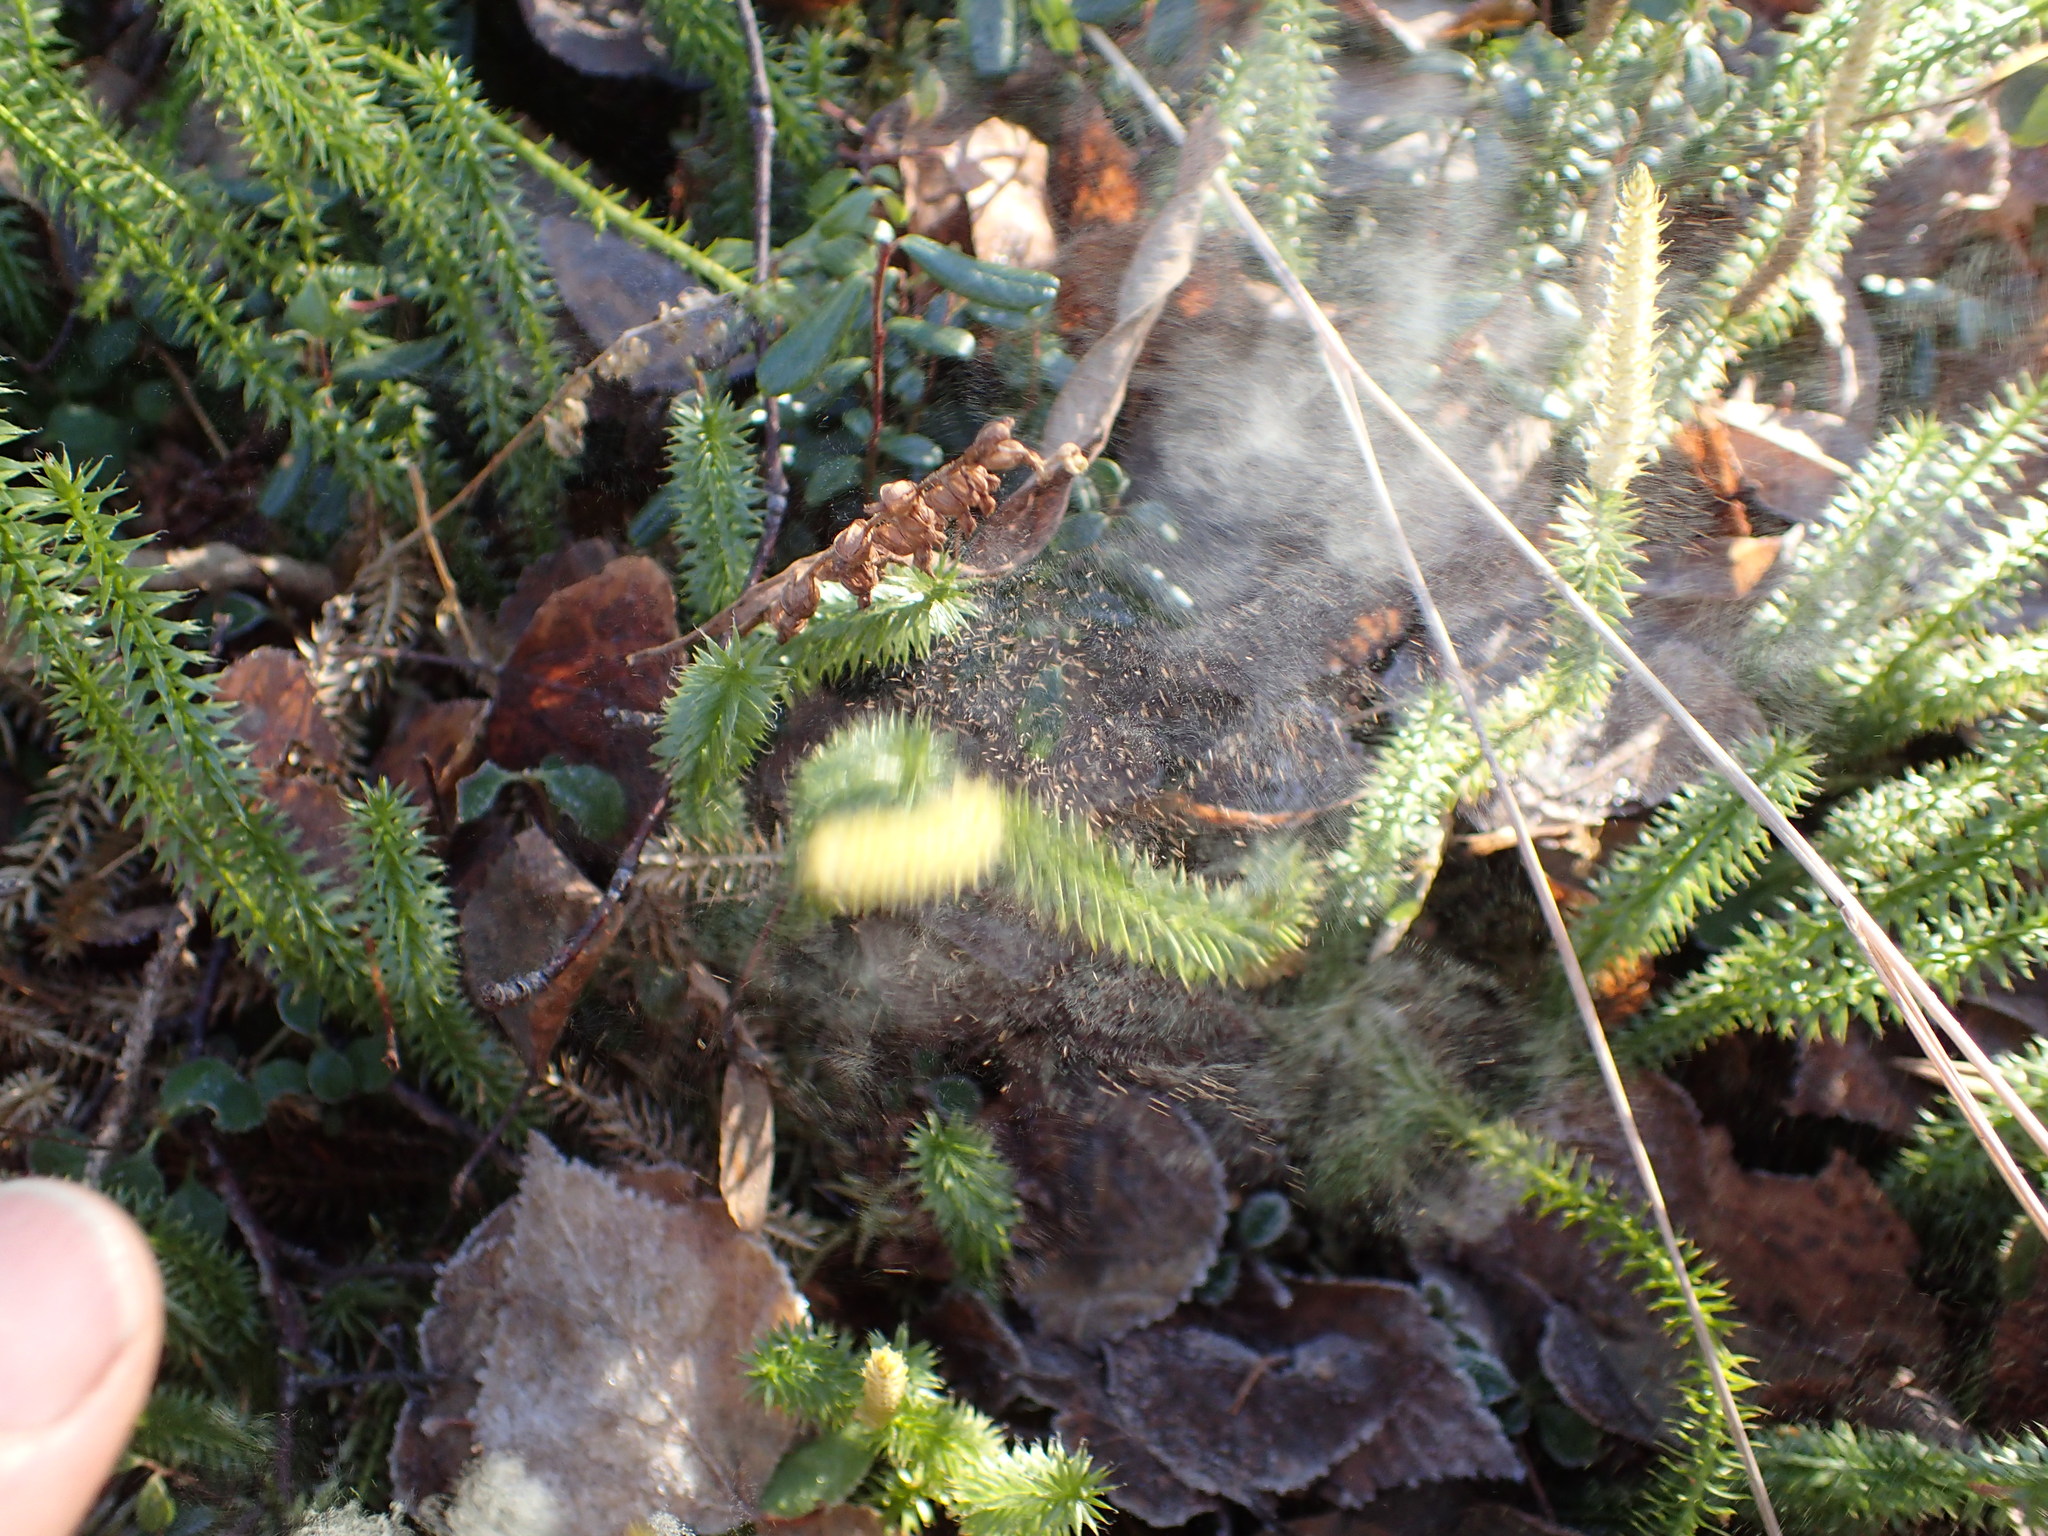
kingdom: Plantae
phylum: Tracheophyta
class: Lycopodiopsida
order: Lycopodiales
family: Lycopodiaceae
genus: Spinulum
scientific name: Spinulum annotinum
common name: Interrupted club-moss
